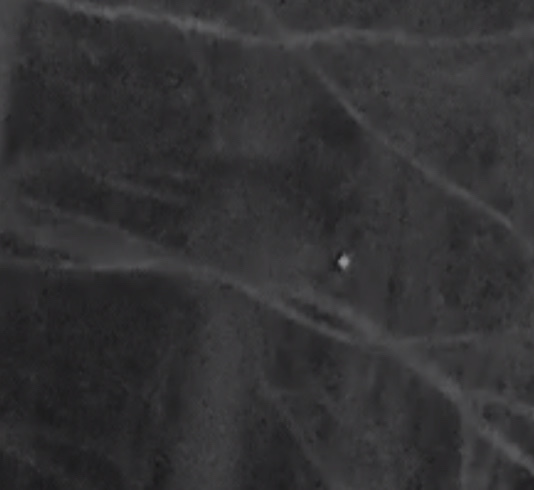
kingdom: Animalia
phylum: Chordata
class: Mammalia
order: Carnivora
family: Procyonidae
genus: Procyon
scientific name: Procyon lotor
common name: Raccoon
